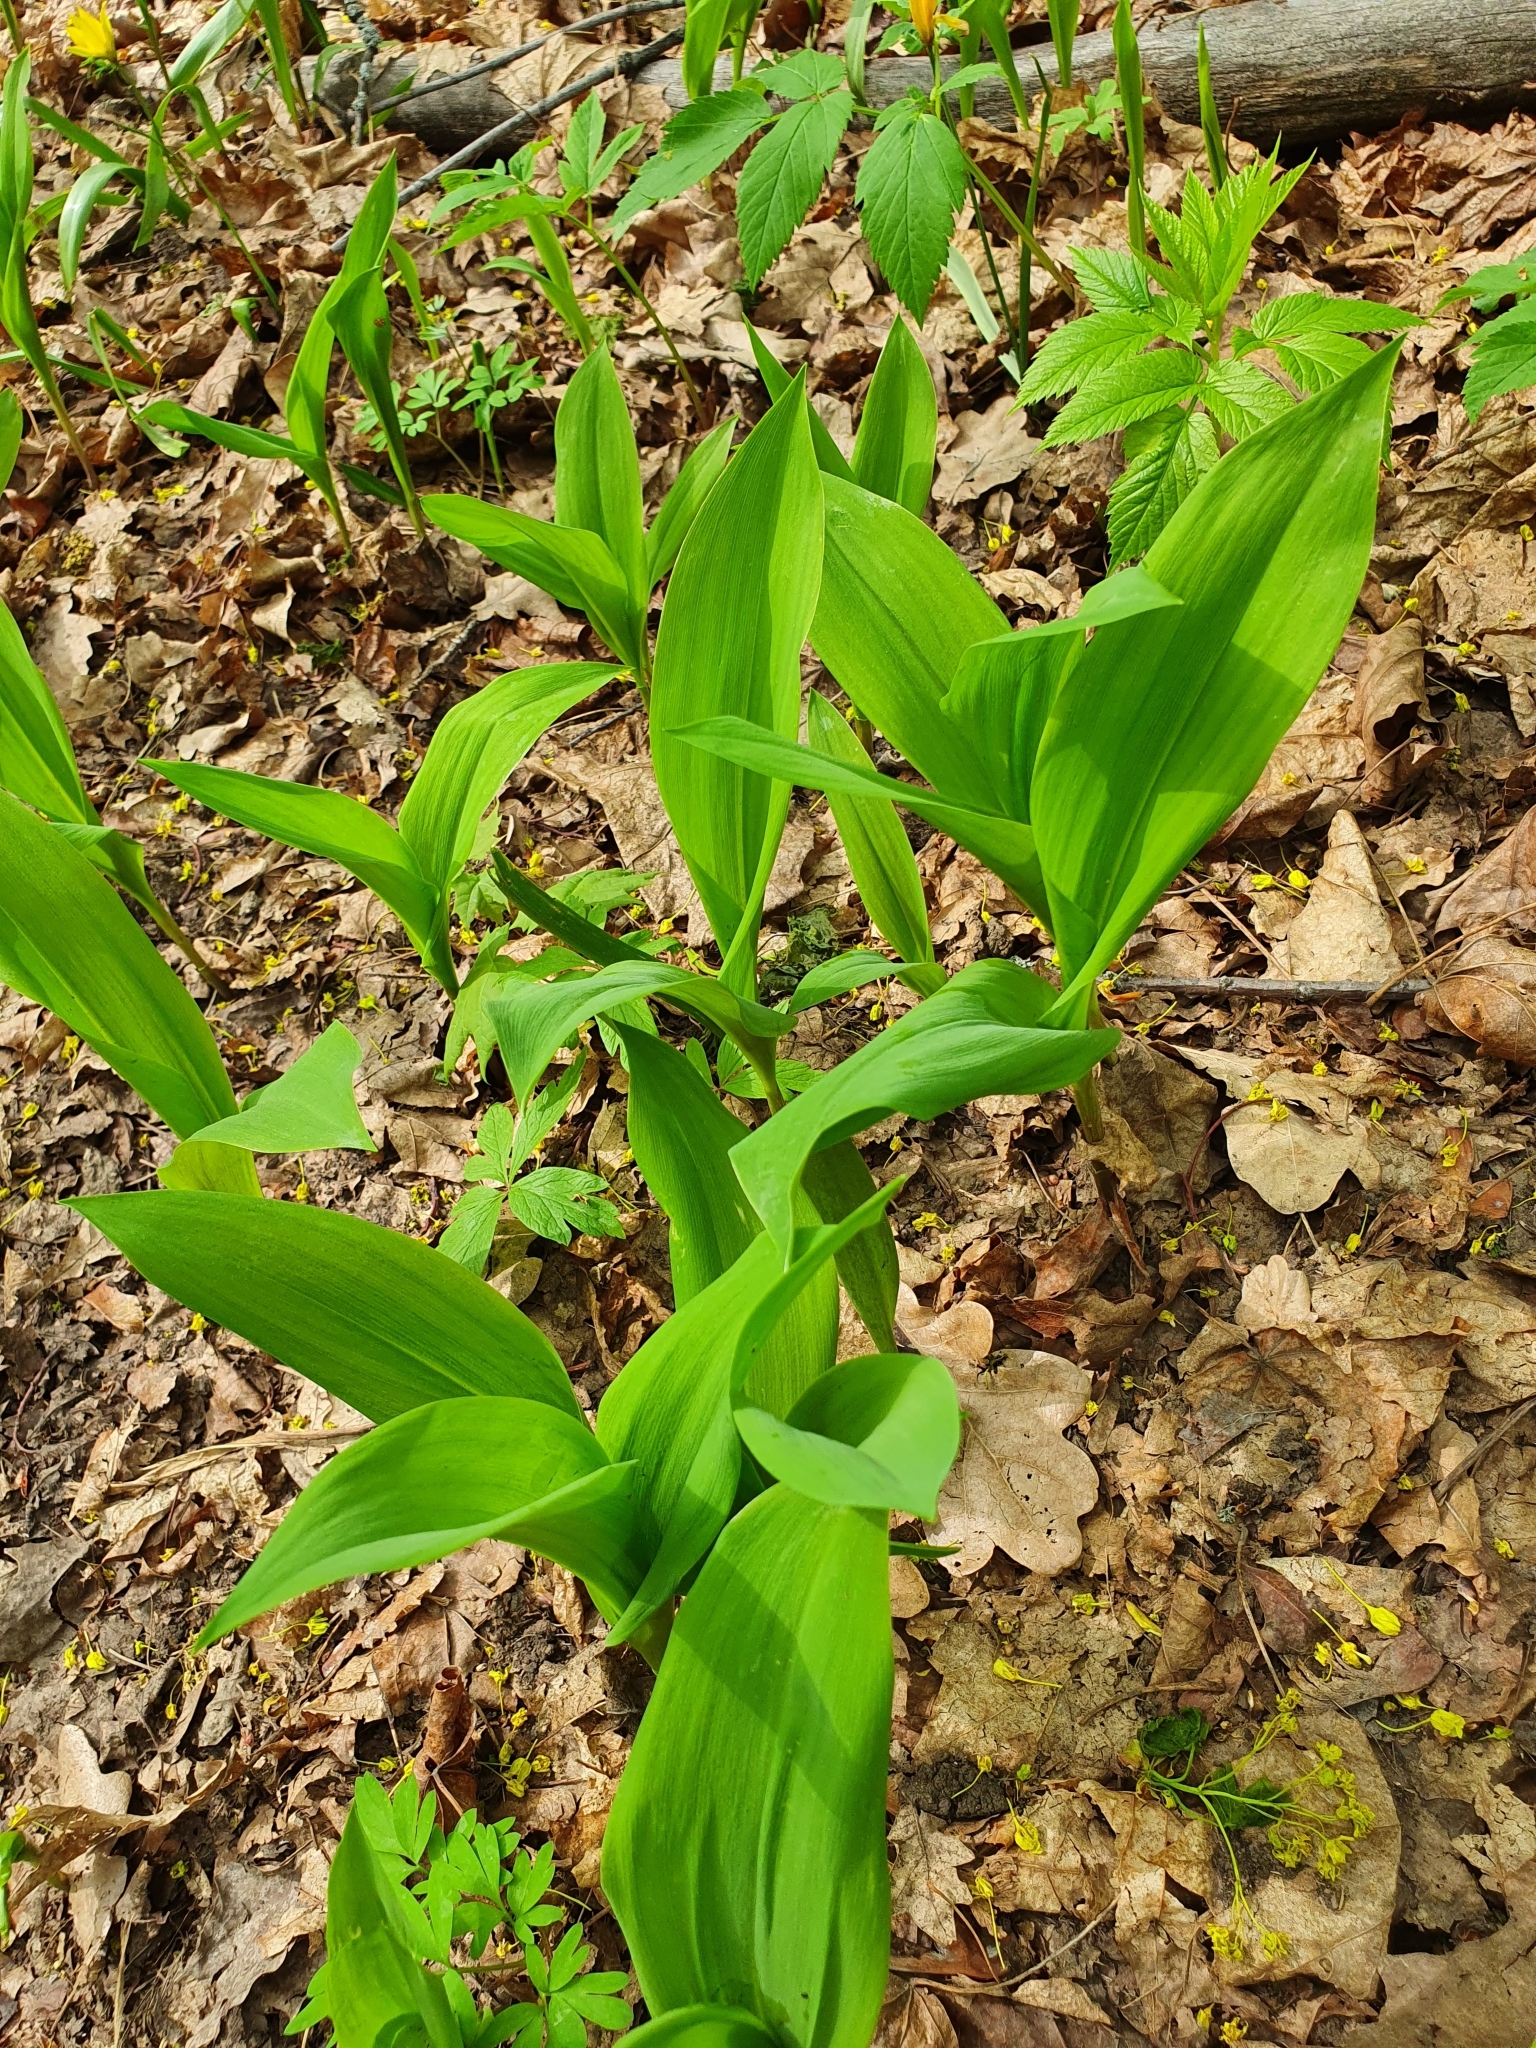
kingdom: Plantae
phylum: Tracheophyta
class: Liliopsida
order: Asparagales
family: Asparagaceae
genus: Convallaria
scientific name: Convallaria majalis
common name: Lily-of-the-valley
